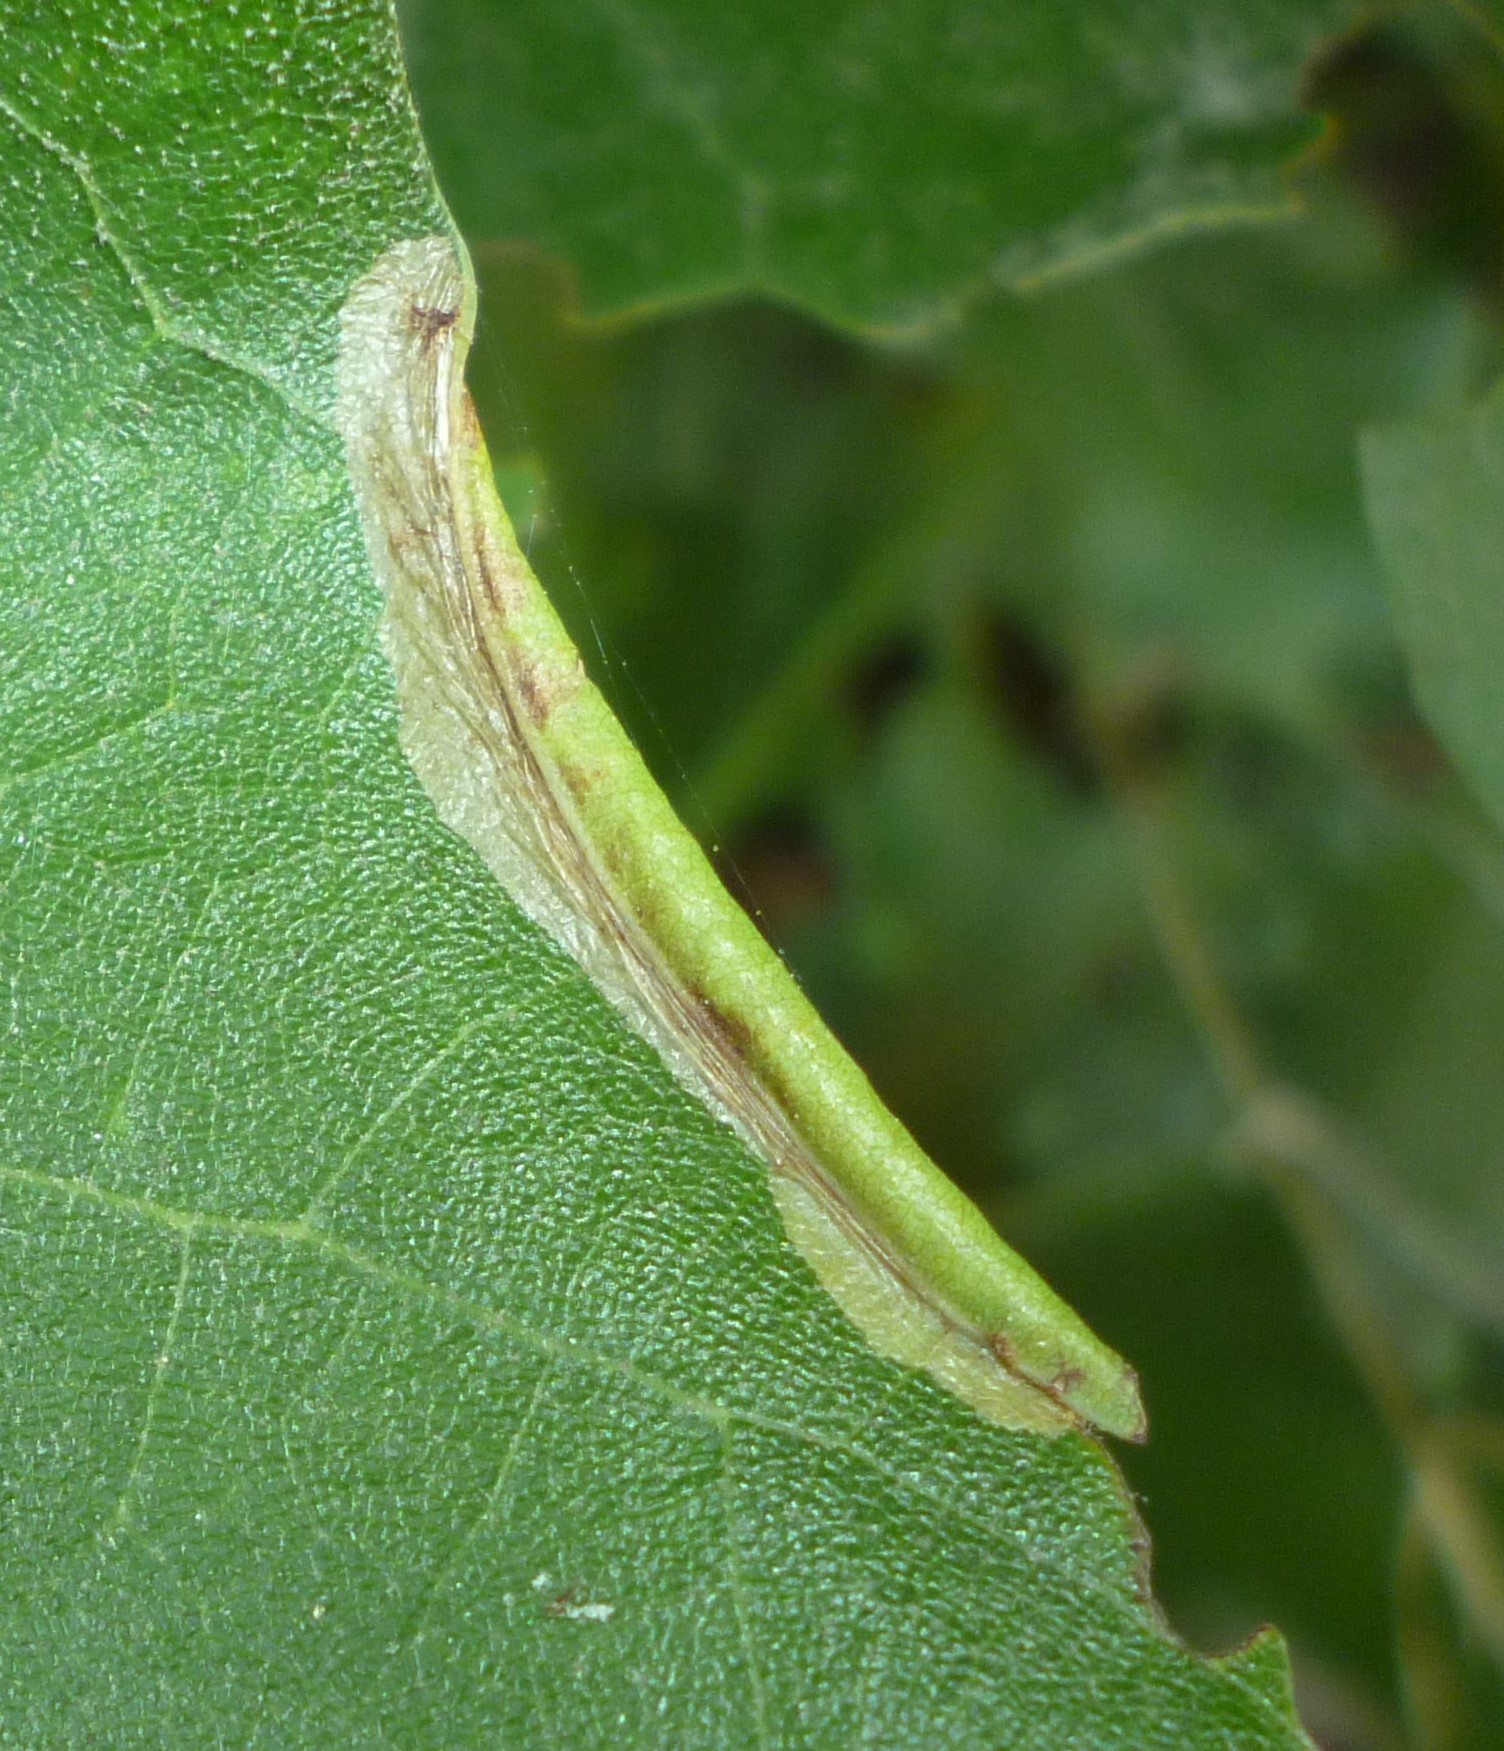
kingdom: Animalia
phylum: Arthropoda
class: Insecta
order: Lepidoptera
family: Tischeriidae
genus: Coptotriche
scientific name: Coptotriche citrinipennella
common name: The golden sweeper
